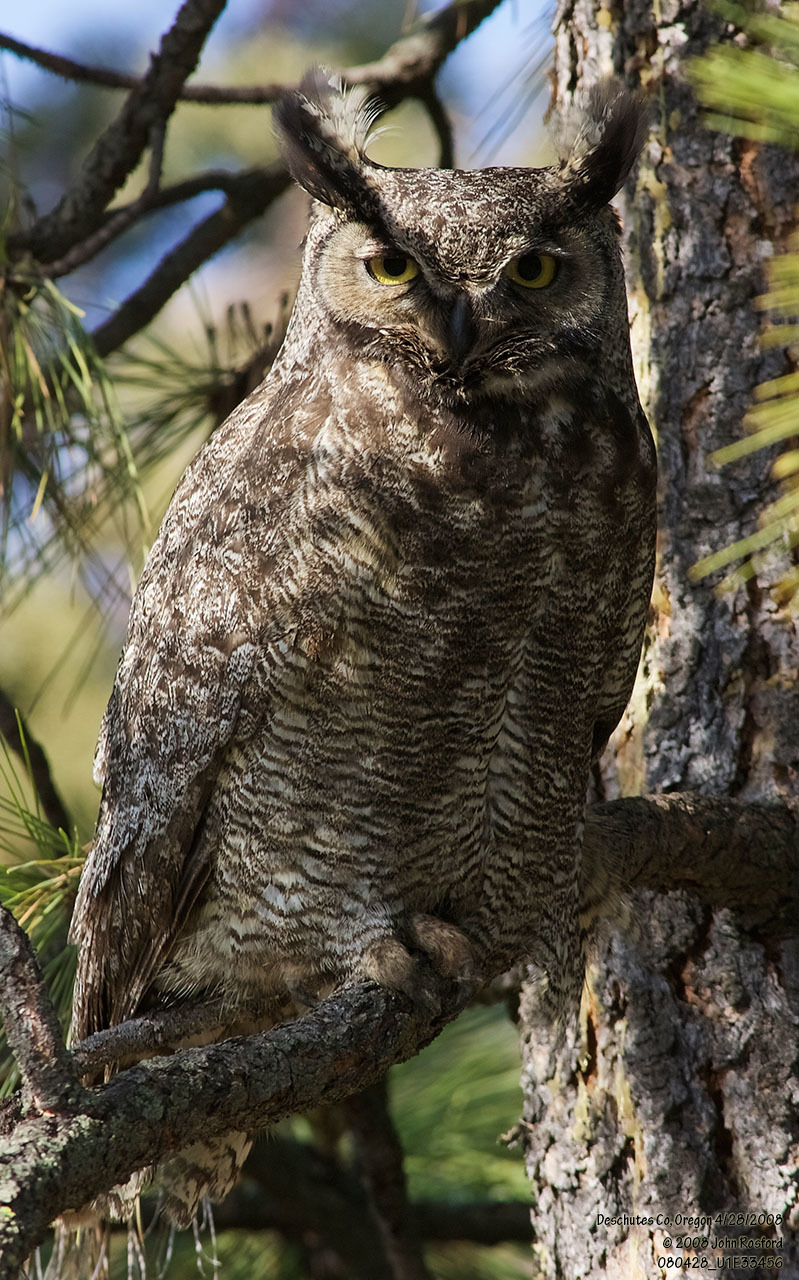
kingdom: Animalia
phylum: Chordata
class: Aves
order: Strigiformes
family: Strigidae
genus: Bubo
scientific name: Bubo virginianus
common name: Great horned owl
